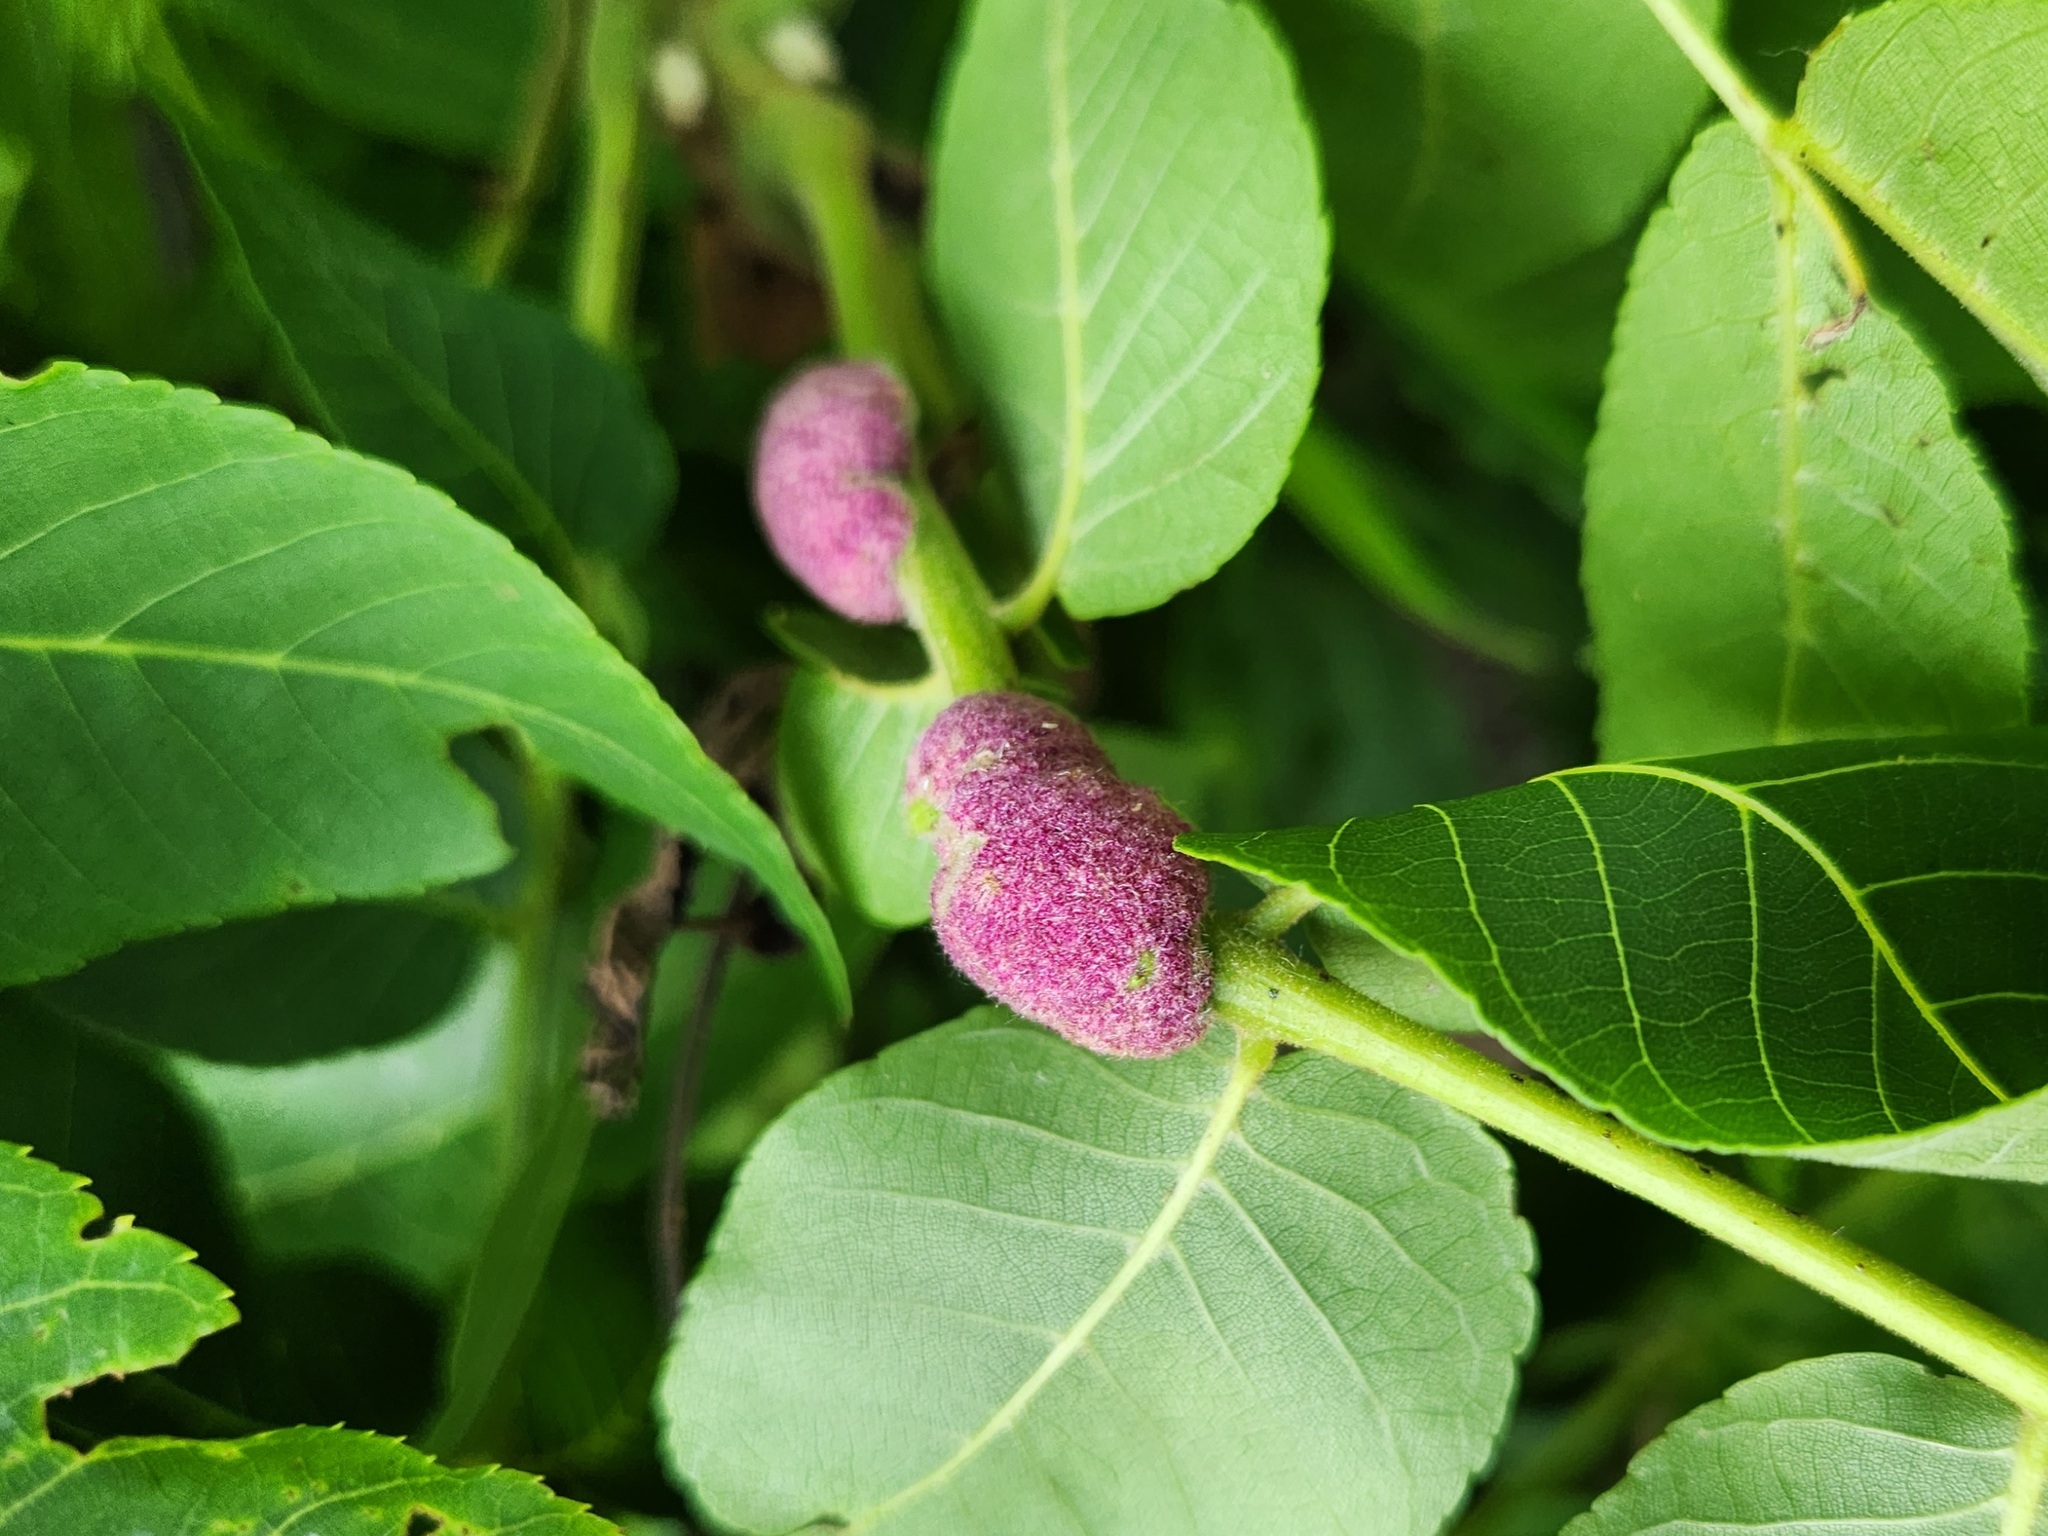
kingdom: Animalia
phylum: Arthropoda
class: Arachnida
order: Trombidiformes
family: Eriophyidae
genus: Aceria
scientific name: Aceria
